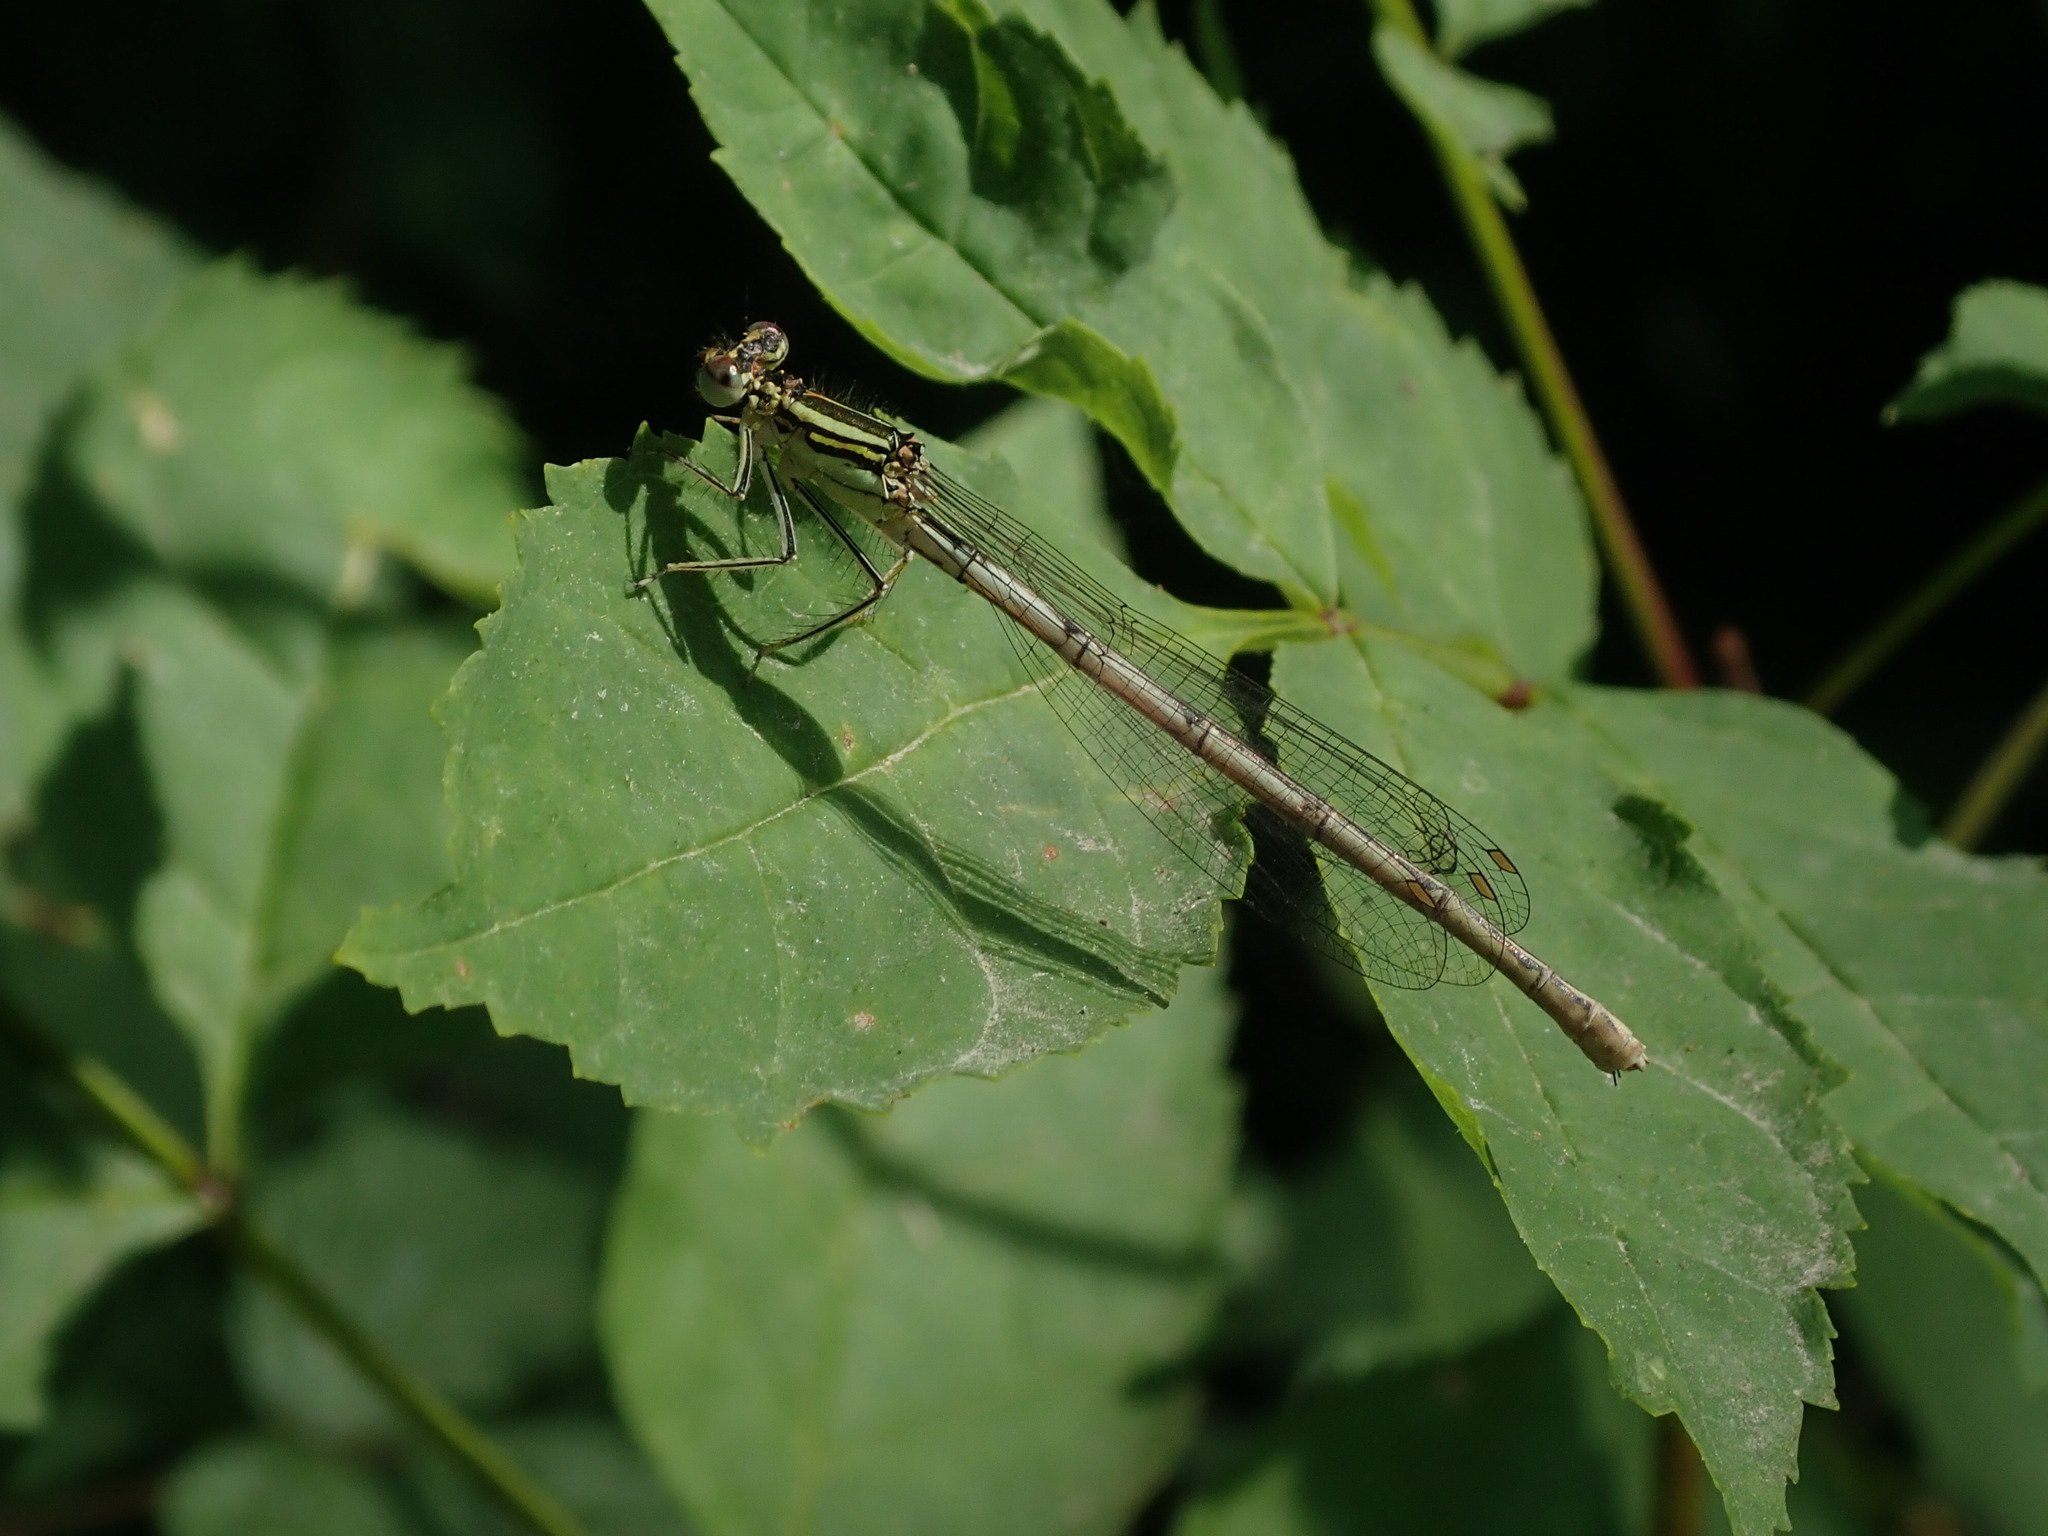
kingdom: Animalia
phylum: Arthropoda
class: Insecta
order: Odonata
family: Platycnemididae
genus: Platycnemis
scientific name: Platycnemis pennipes
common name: White-legged damselfly
